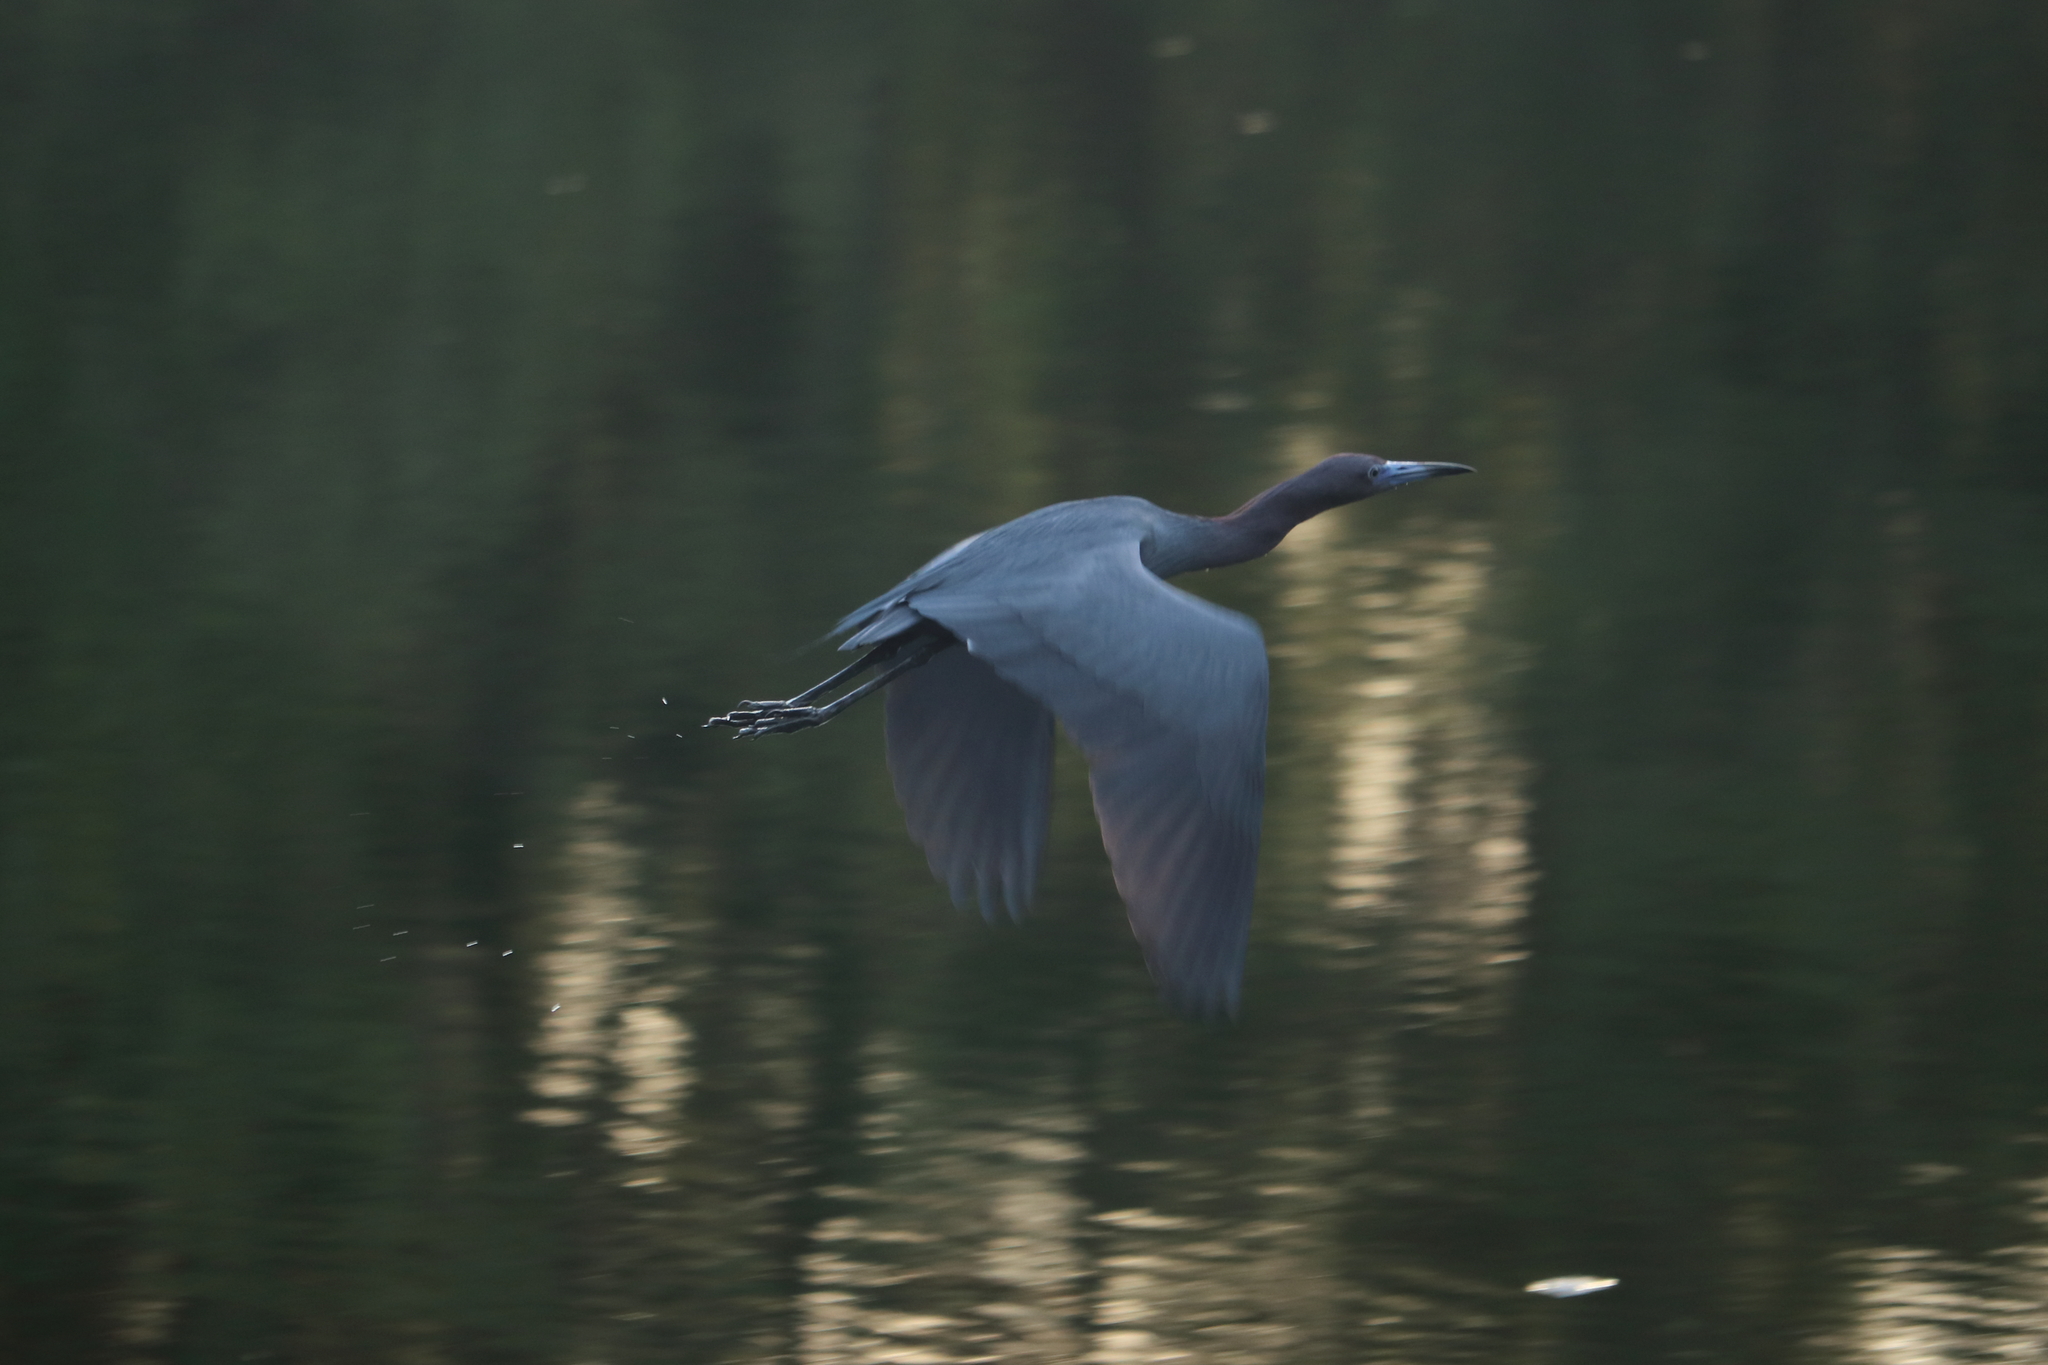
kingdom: Animalia
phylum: Chordata
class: Aves
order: Pelecaniformes
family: Ardeidae
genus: Egretta
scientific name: Egretta caerulea
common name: Little blue heron
